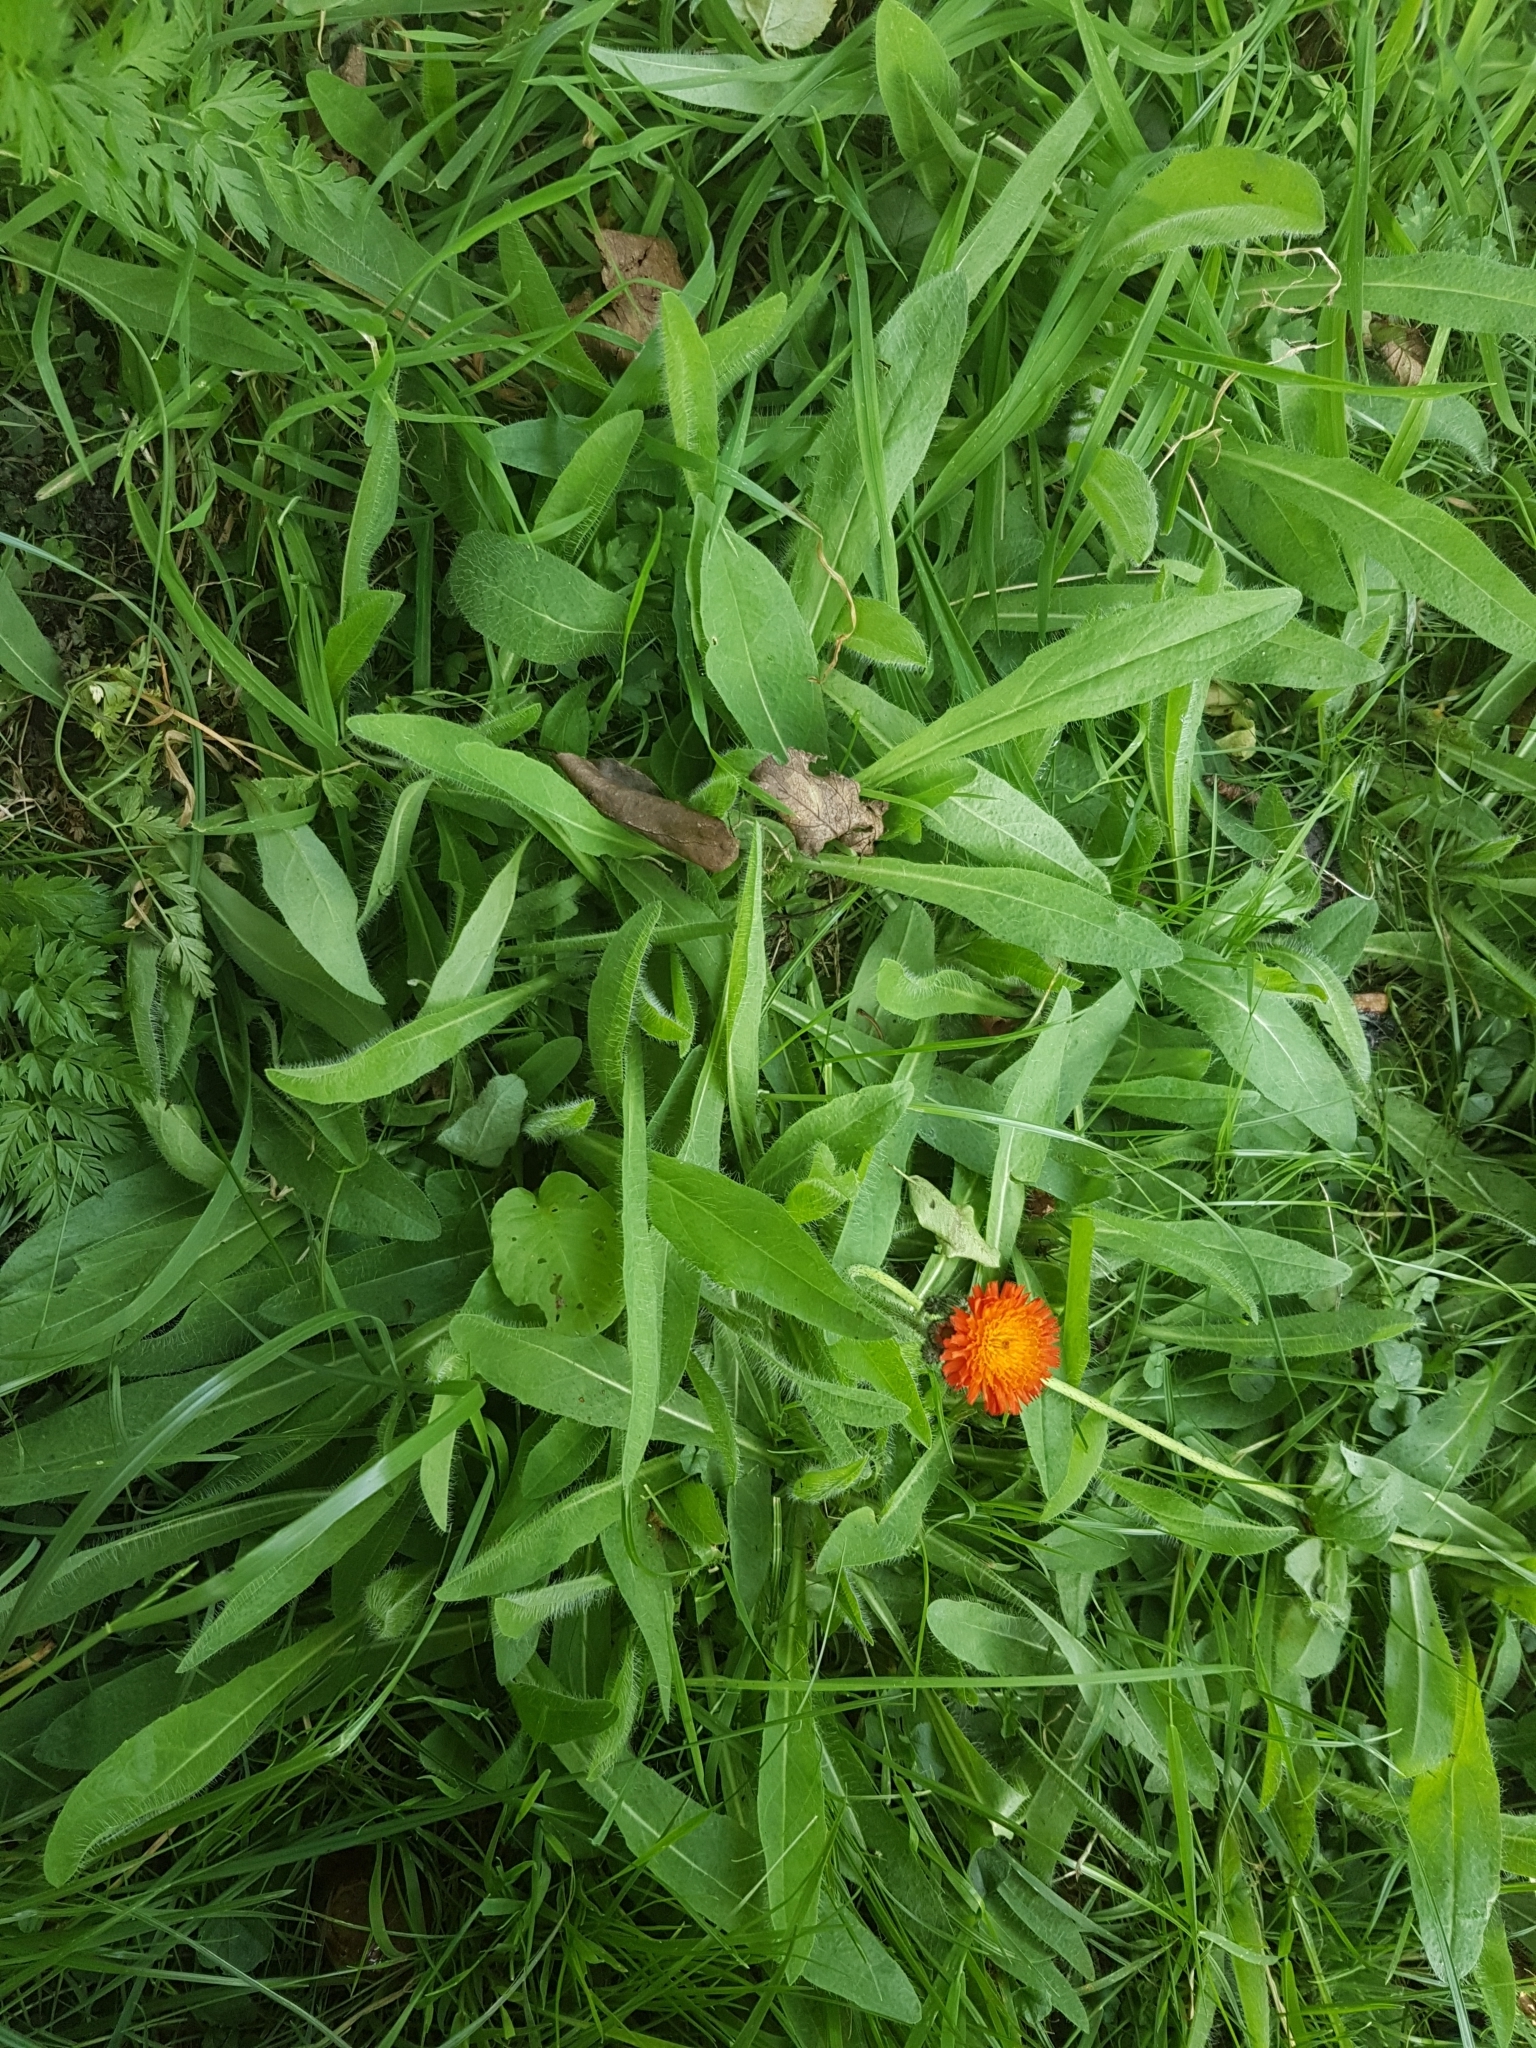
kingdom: Plantae
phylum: Tracheophyta
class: Magnoliopsida
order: Asterales
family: Asteraceae
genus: Pilosella
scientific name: Pilosella aurantiaca
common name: Fox-and-cubs
